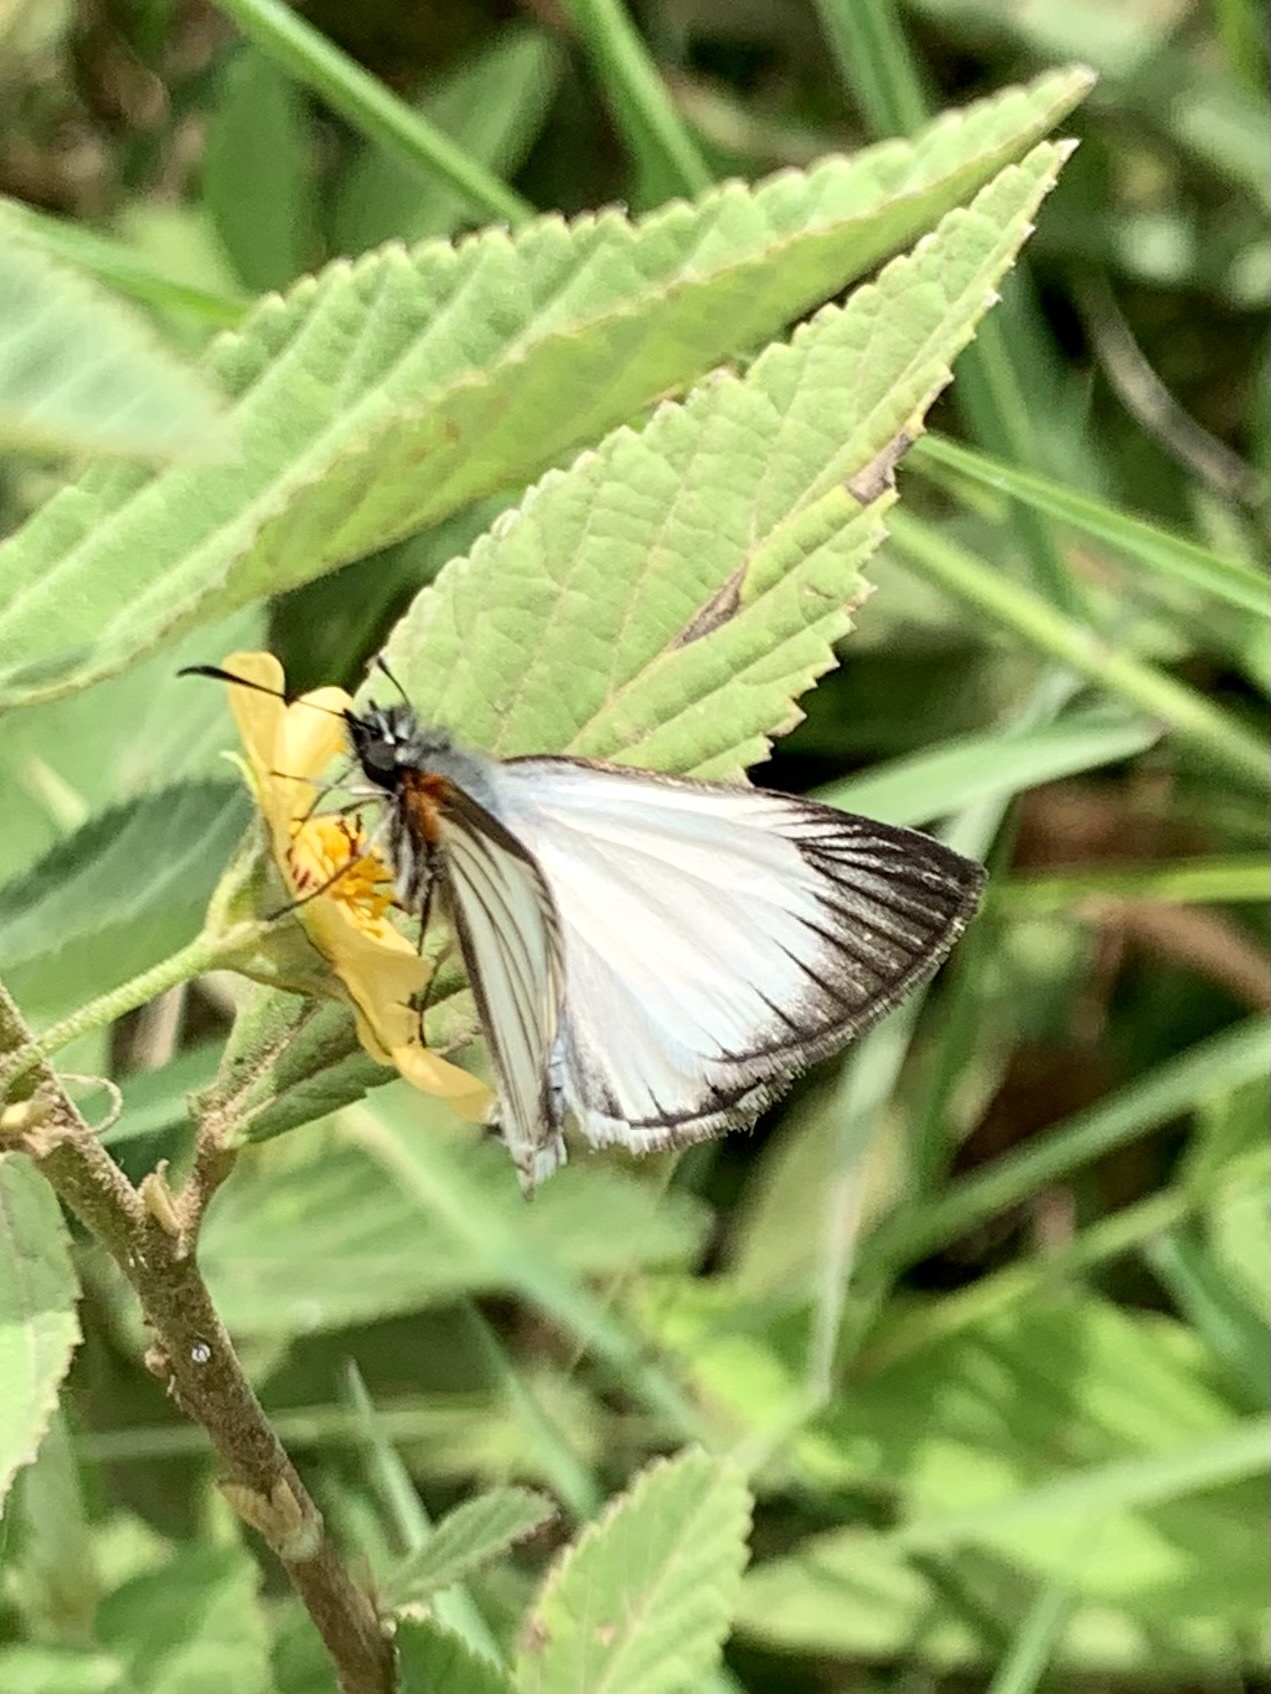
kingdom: Animalia
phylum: Arthropoda
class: Insecta
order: Lepidoptera
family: Hesperiidae
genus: Heliopetes
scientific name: Heliopetes arsalte
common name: Veined white-skipper
